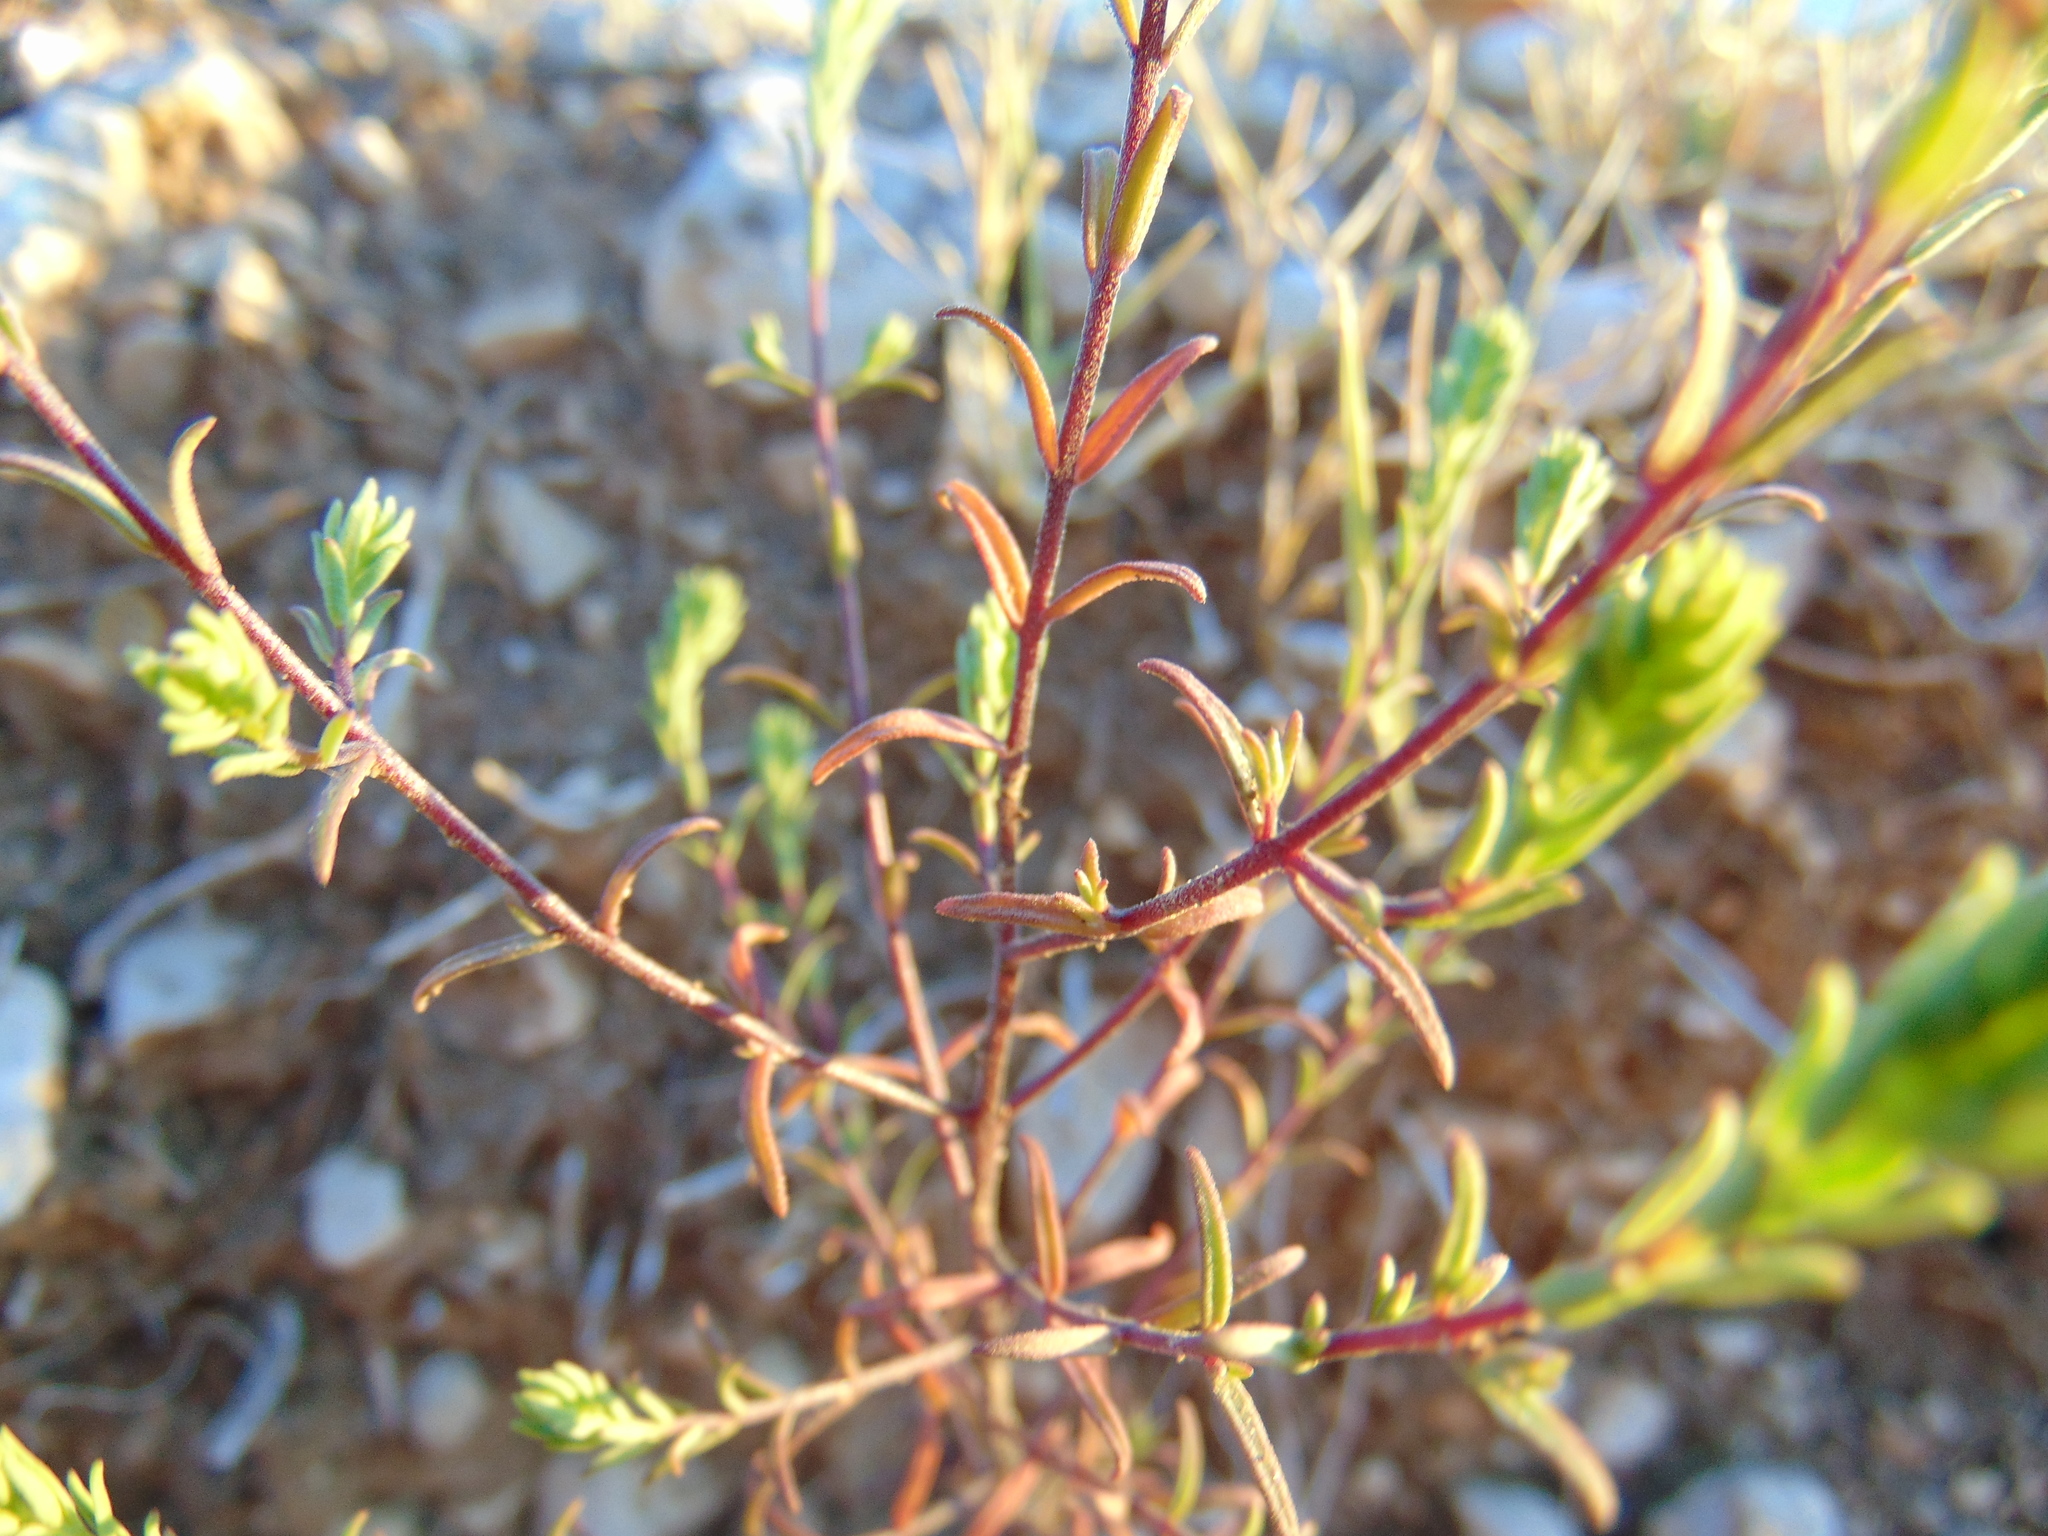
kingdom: Plantae
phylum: Tracheophyta
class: Magnoliopsida
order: Lamiales
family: Orobanchaceae
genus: Odontites
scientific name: Odontites luteus
